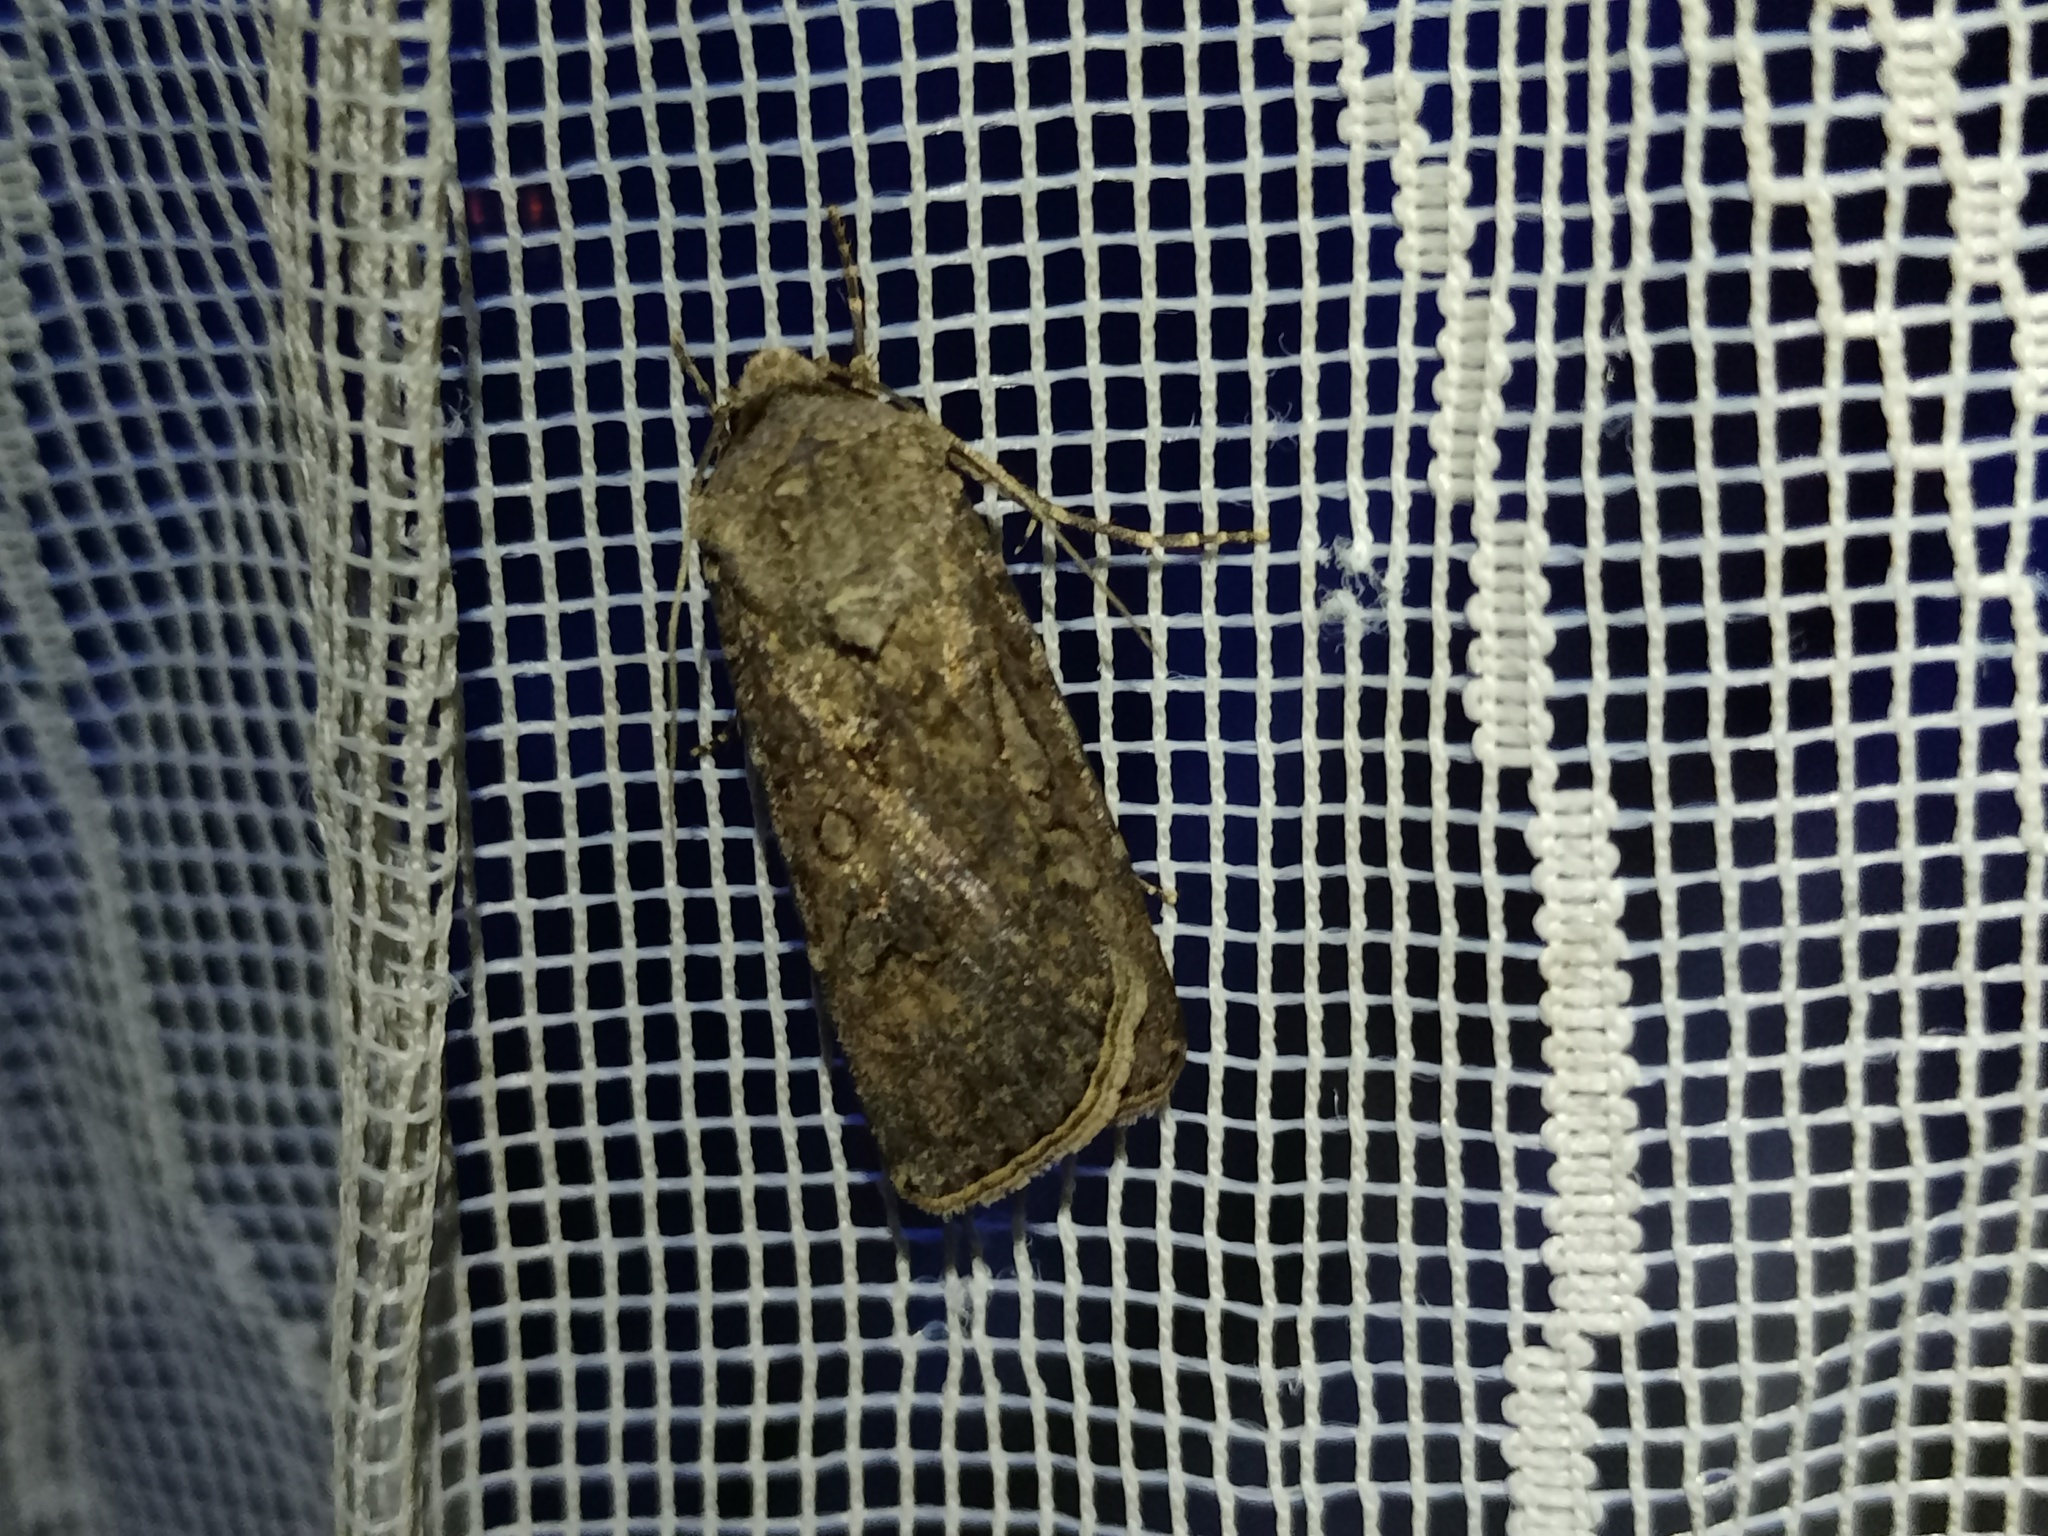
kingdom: Animalia
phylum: Arthropoda
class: Insecta
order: Lepidoptera
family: Noctuidae
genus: Agrotis
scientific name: Agrotis segetum
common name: Turnip moth
